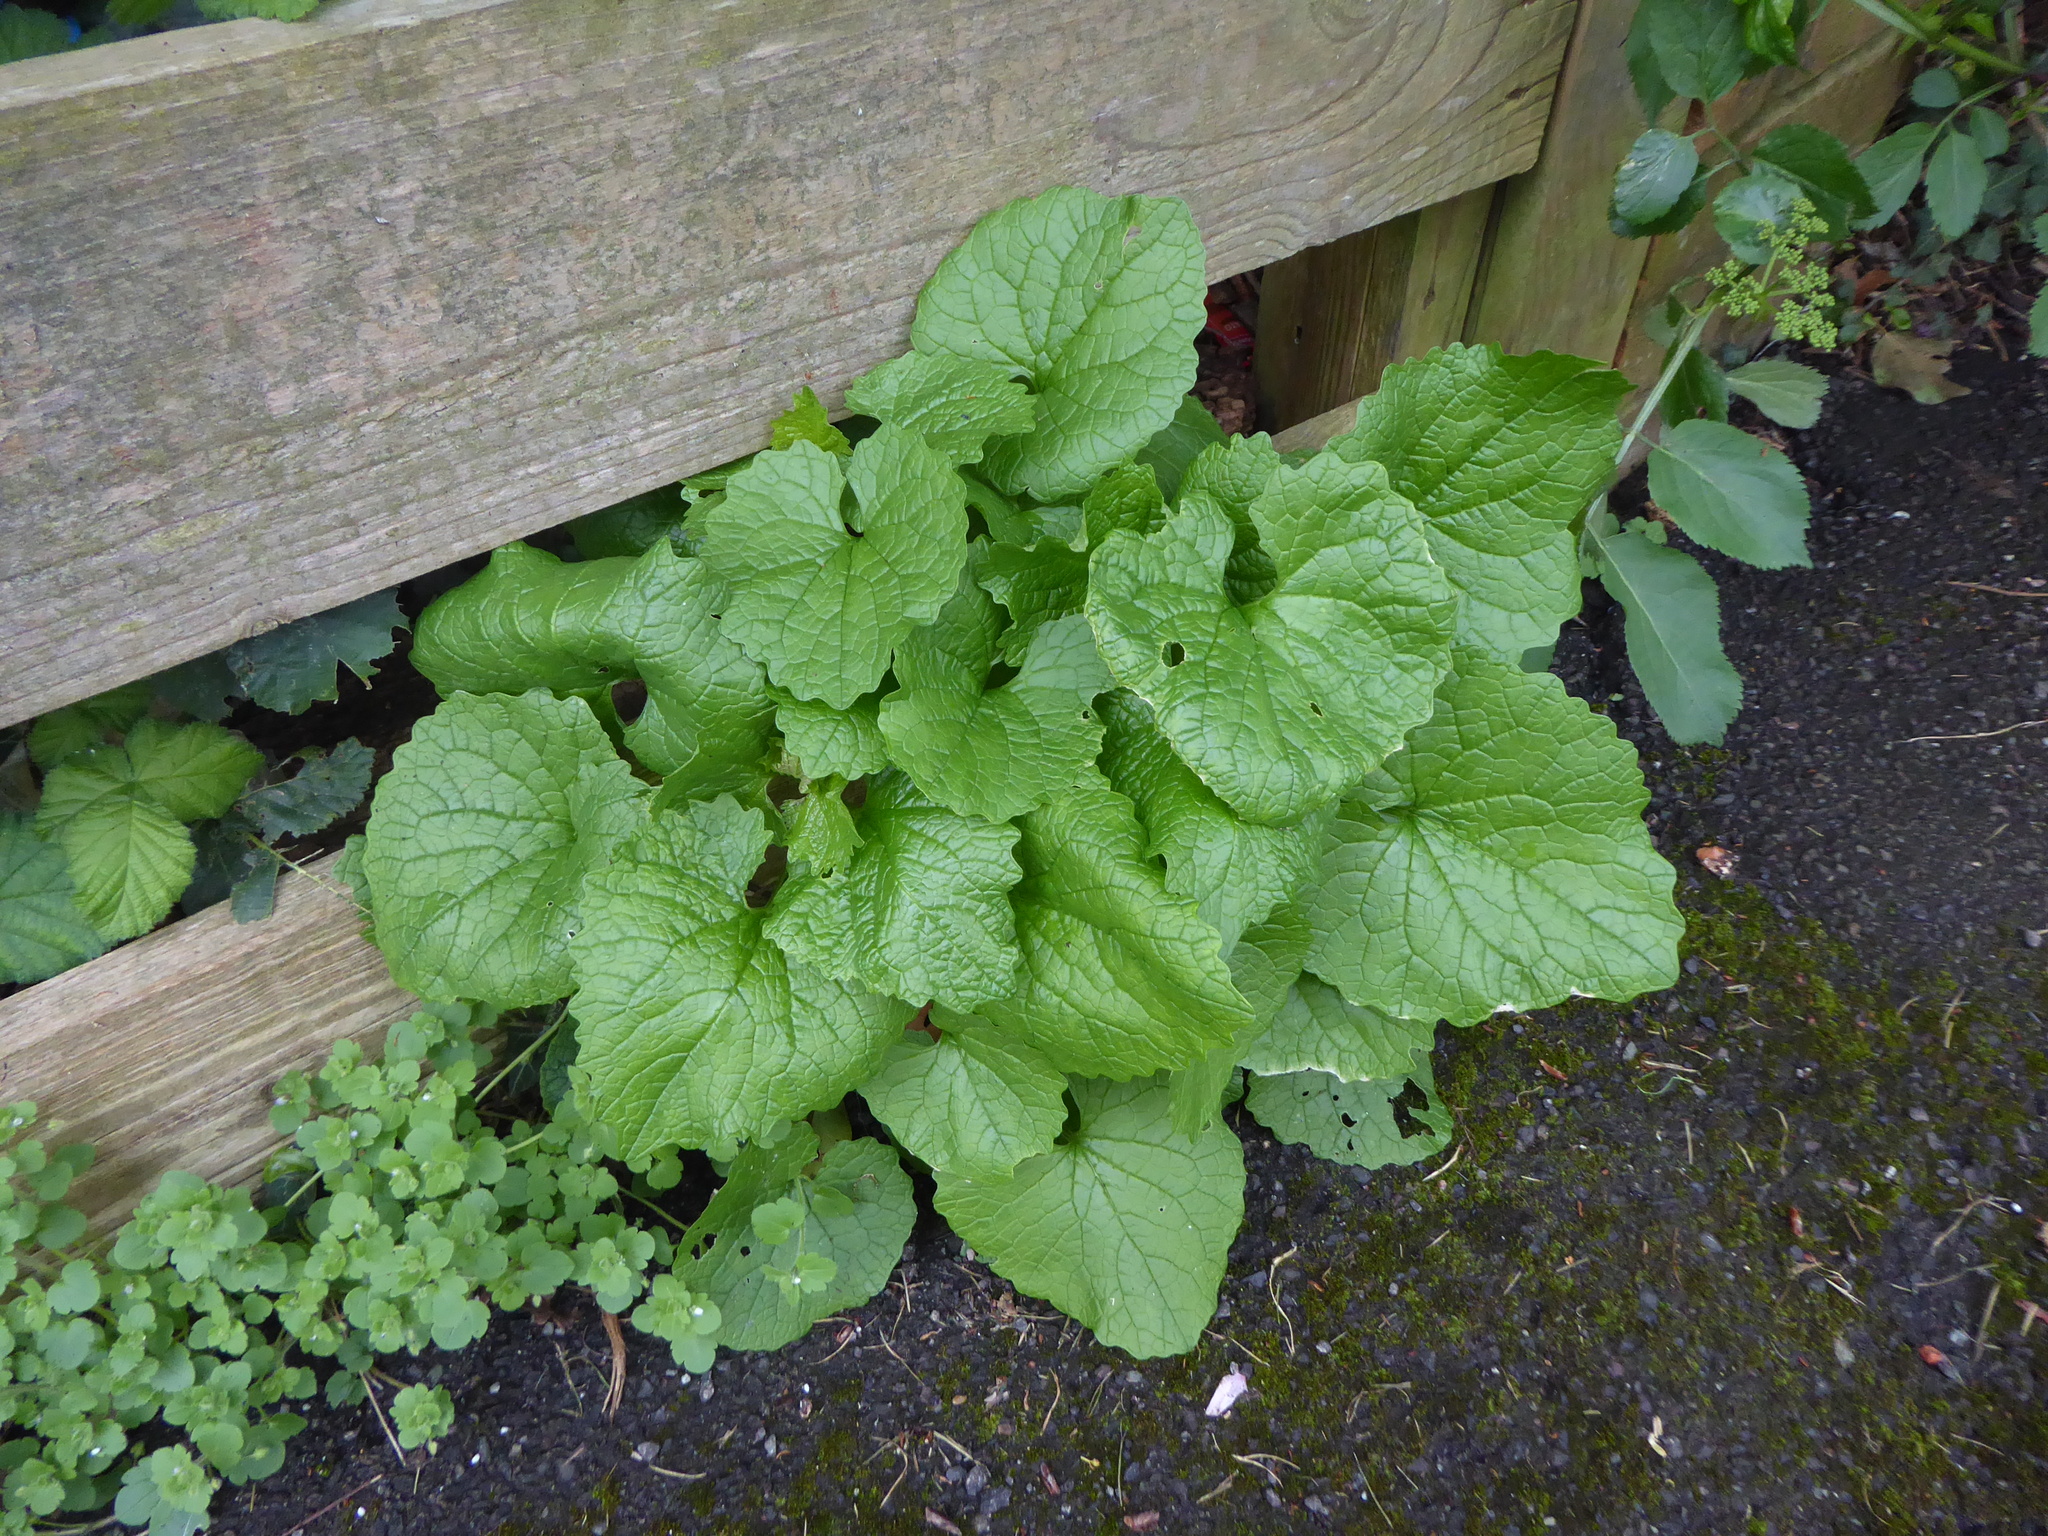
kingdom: Plantae
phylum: Tracheophyta
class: Magnoliopsida
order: Brassicales
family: Brassicaceae
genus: Alliaria
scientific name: Alliaria petiolata
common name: Garlic mustard
